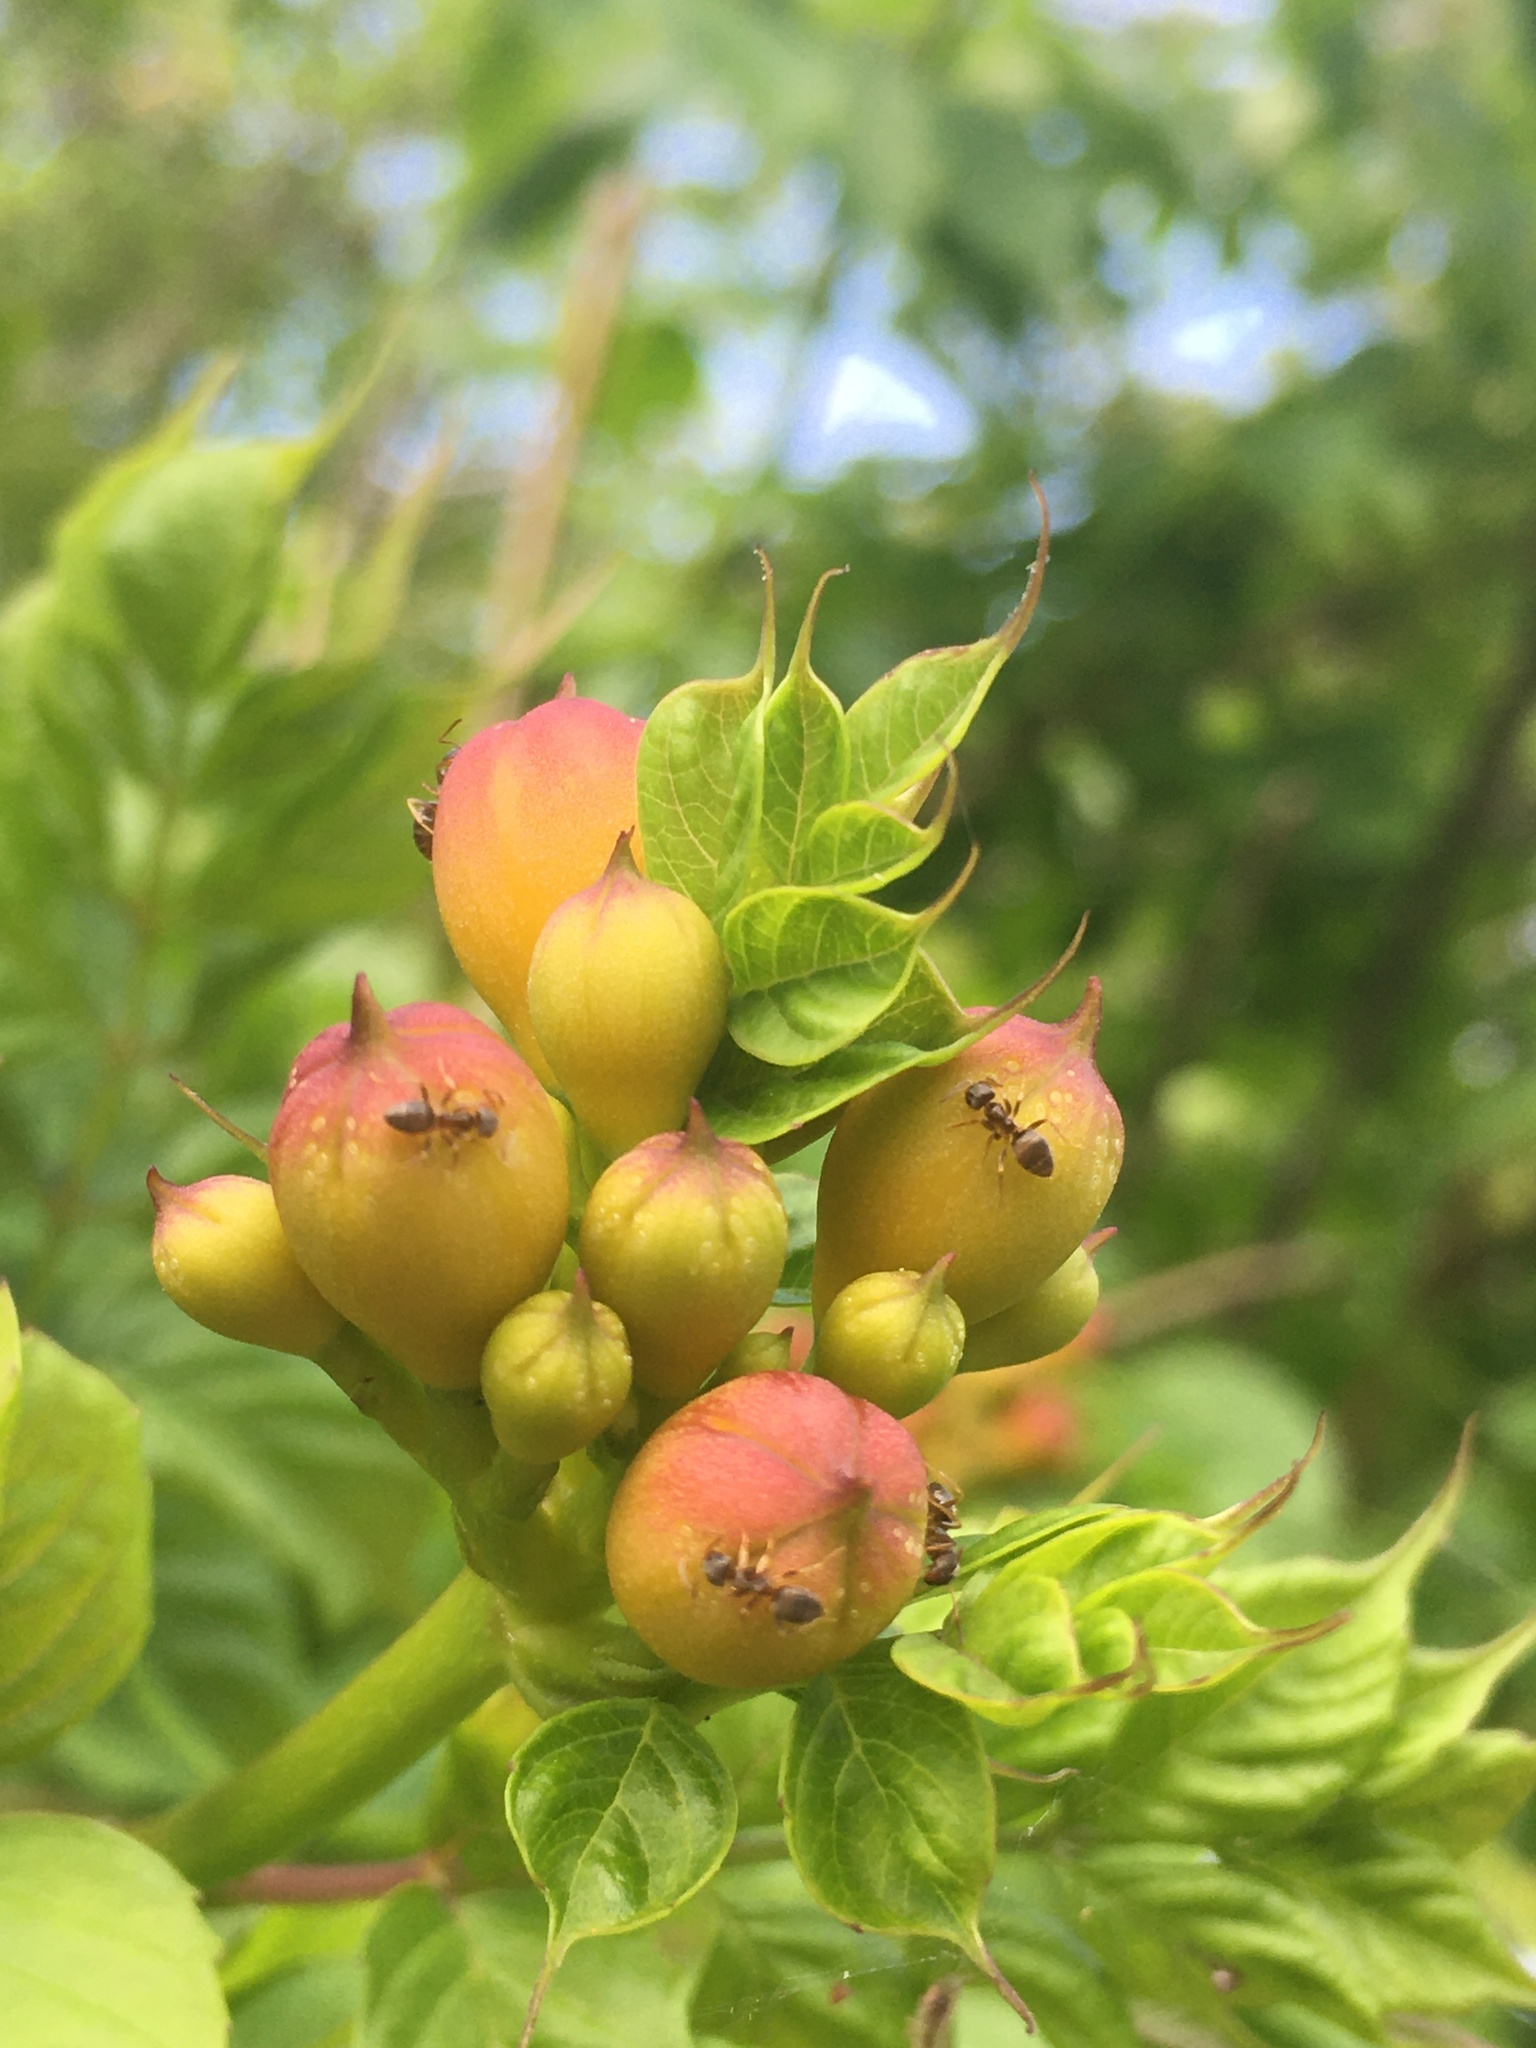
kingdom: Animalia
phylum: Arthropoda
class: Insecta
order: Hymenoptera
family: Formicidae
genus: Lasius
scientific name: Lasius americanus
